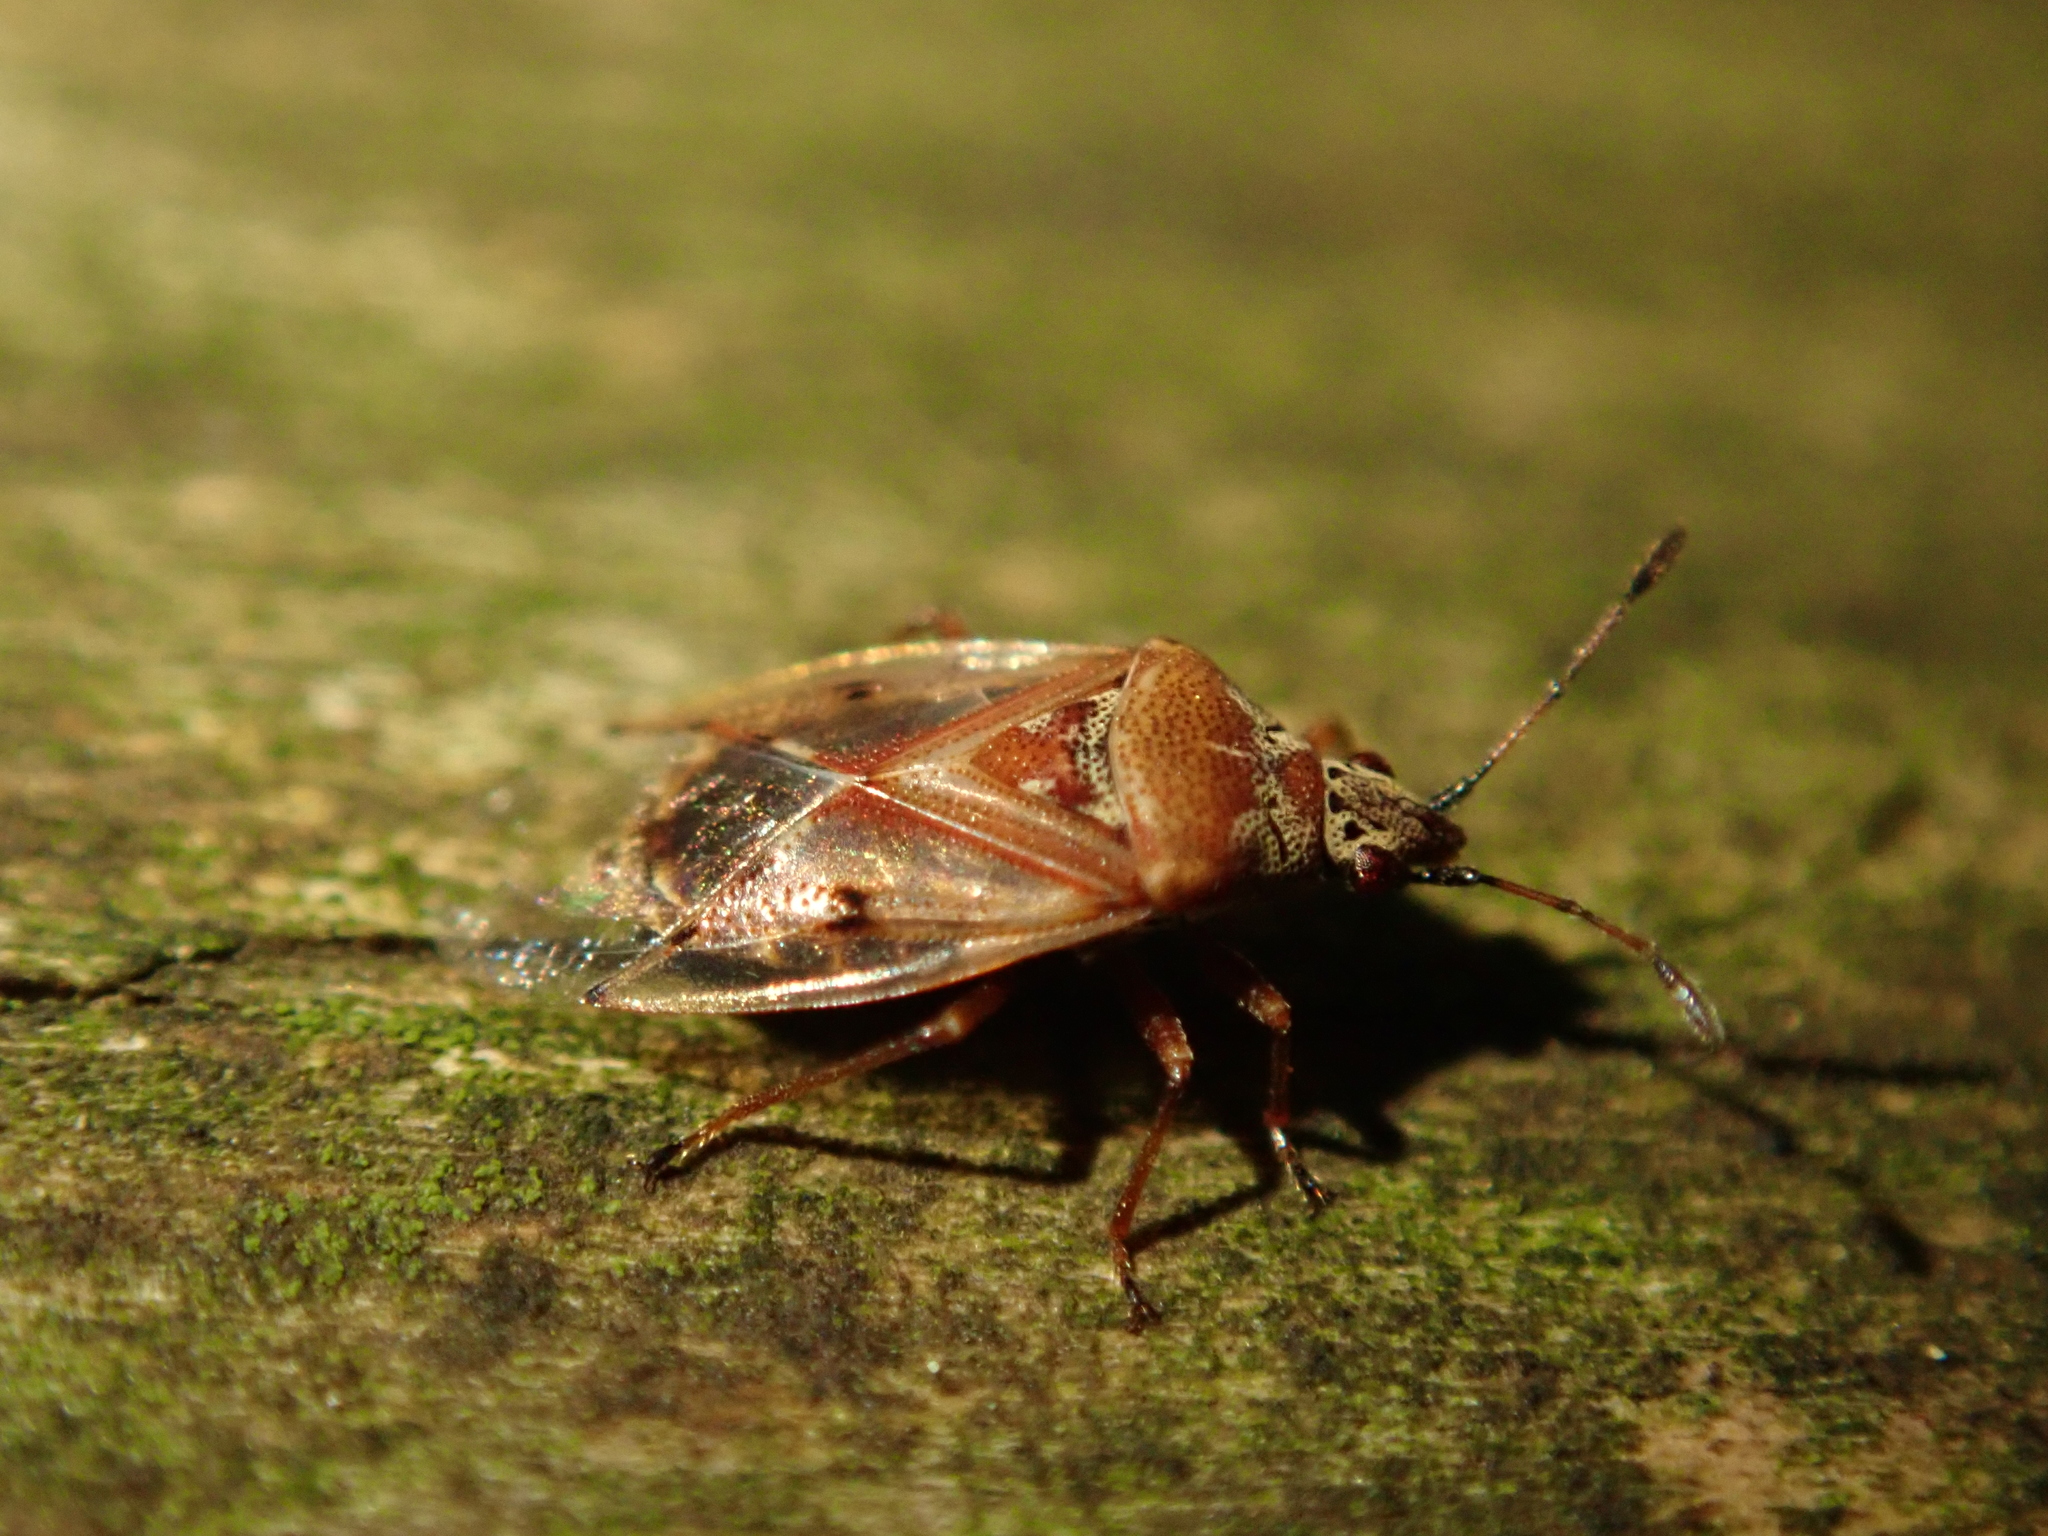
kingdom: Animalia
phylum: Arthropoda
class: Insecta
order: Hemiptera
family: Lygaeidae
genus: Kleidocerys
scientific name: Kleidocerys resedae
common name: Birch catkin bug
